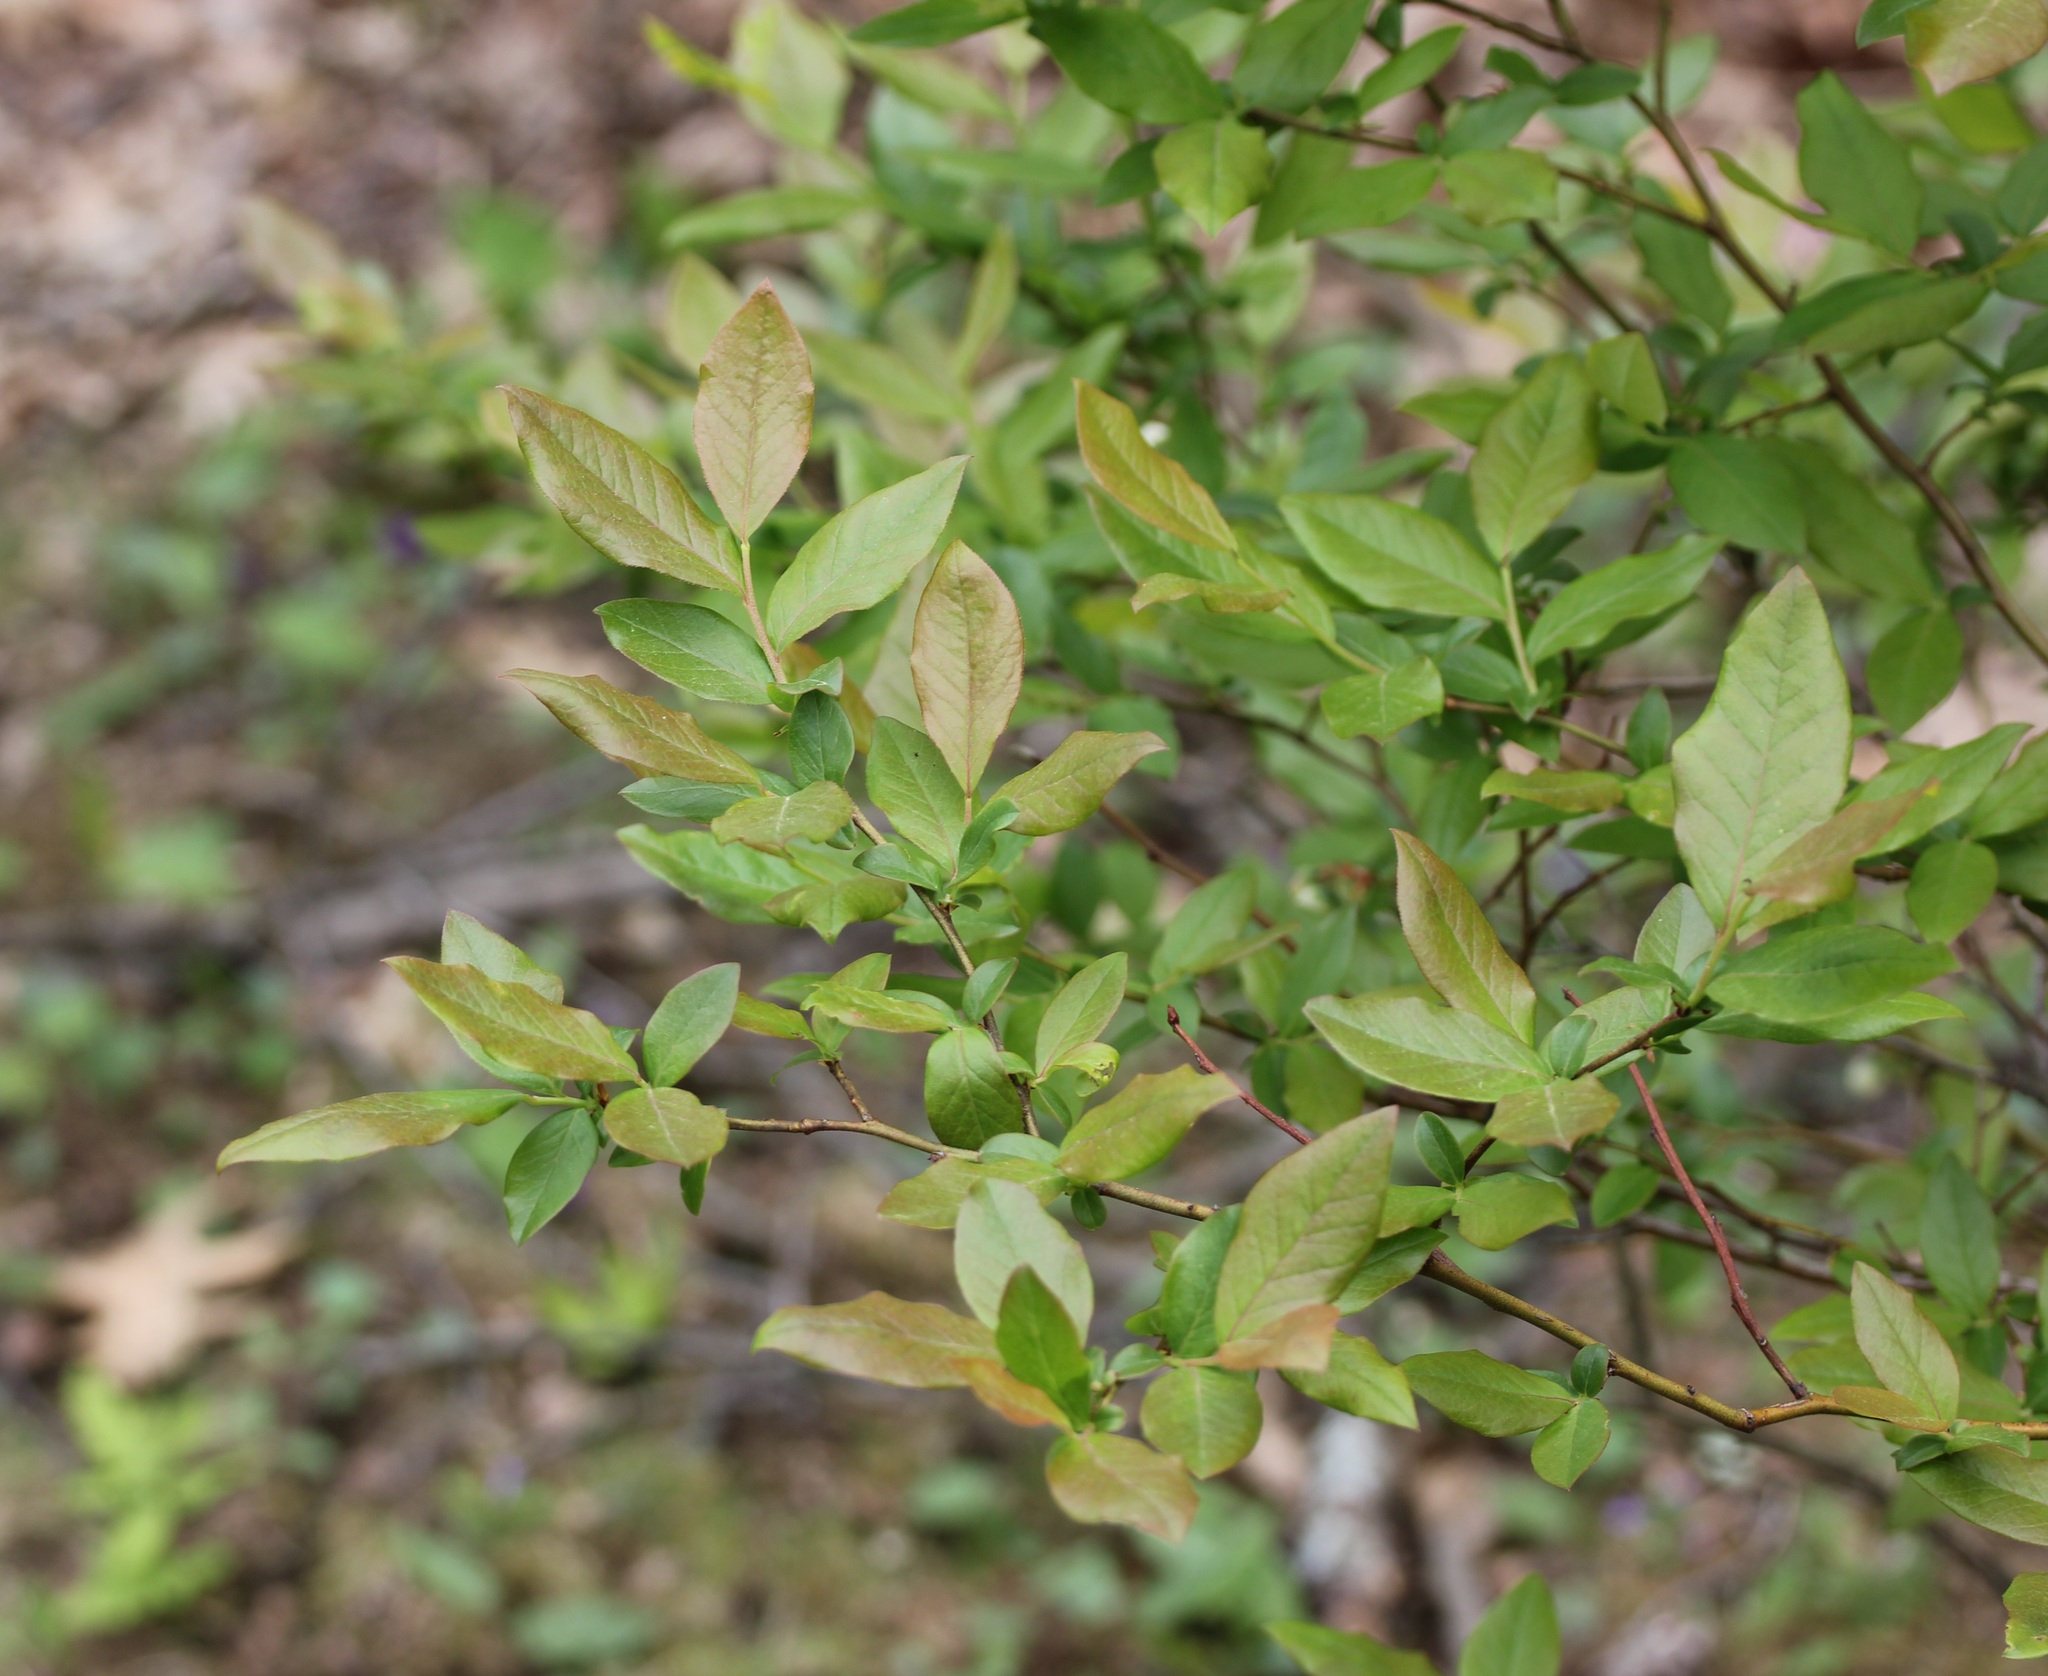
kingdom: Plantae
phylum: Tracheophyta
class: Magnoliopsida
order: Ericales
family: Ericaceae
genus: Vaccinium
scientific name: Vaccinium corymbosum
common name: Blueberry
